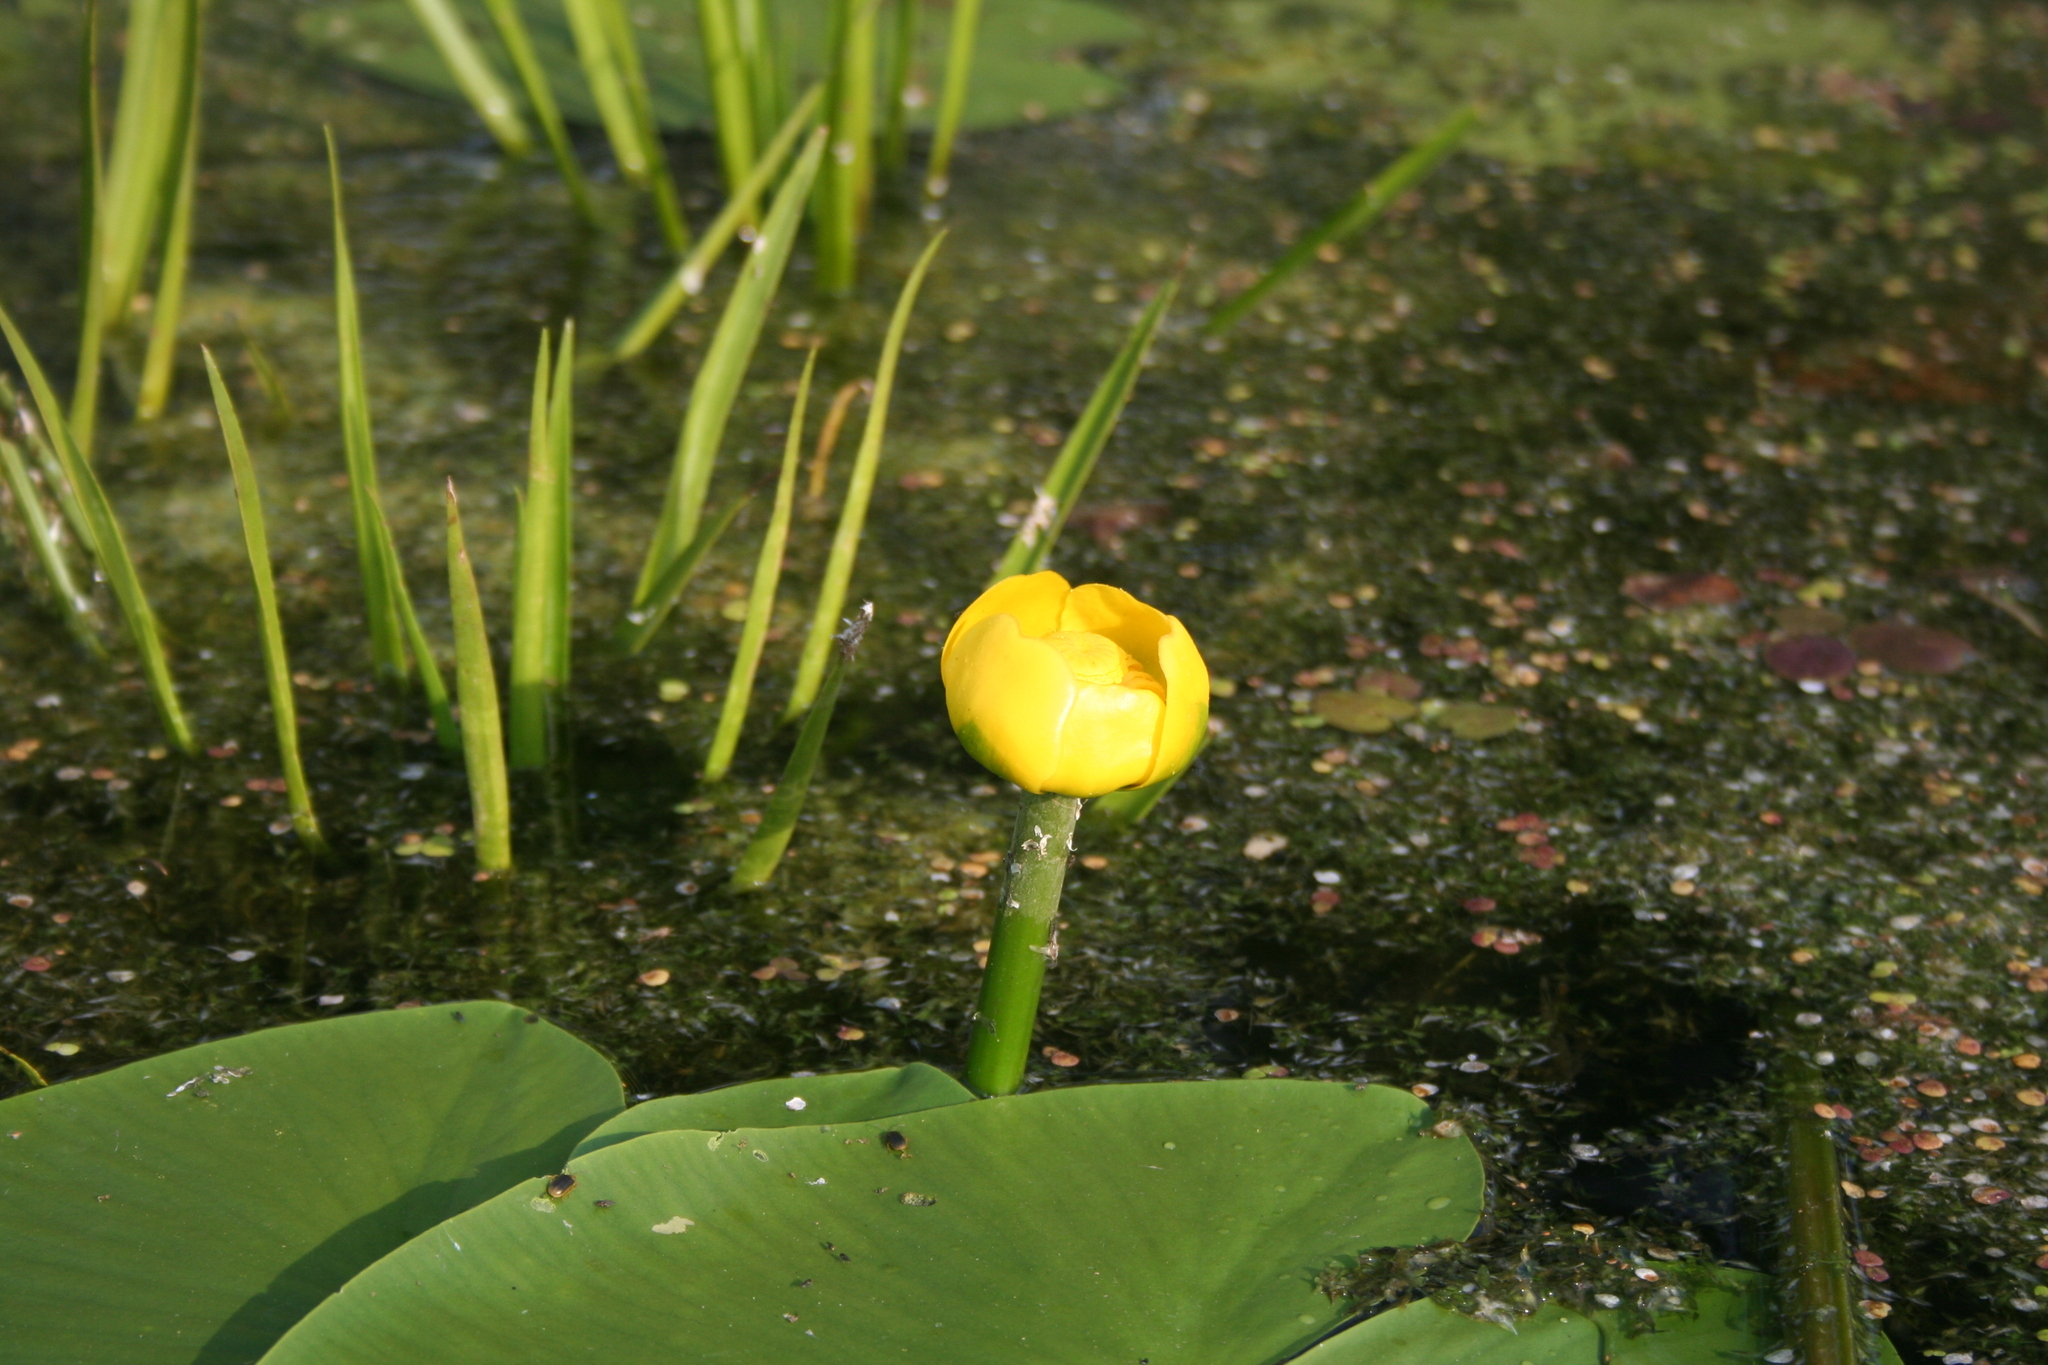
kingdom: Plantae
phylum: Tracheophyta
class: Magnoliopsida
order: Nymphaeales
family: Nymphaeaceae
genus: Nuphar
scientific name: Nuphar lutea
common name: Yellow water-lily
